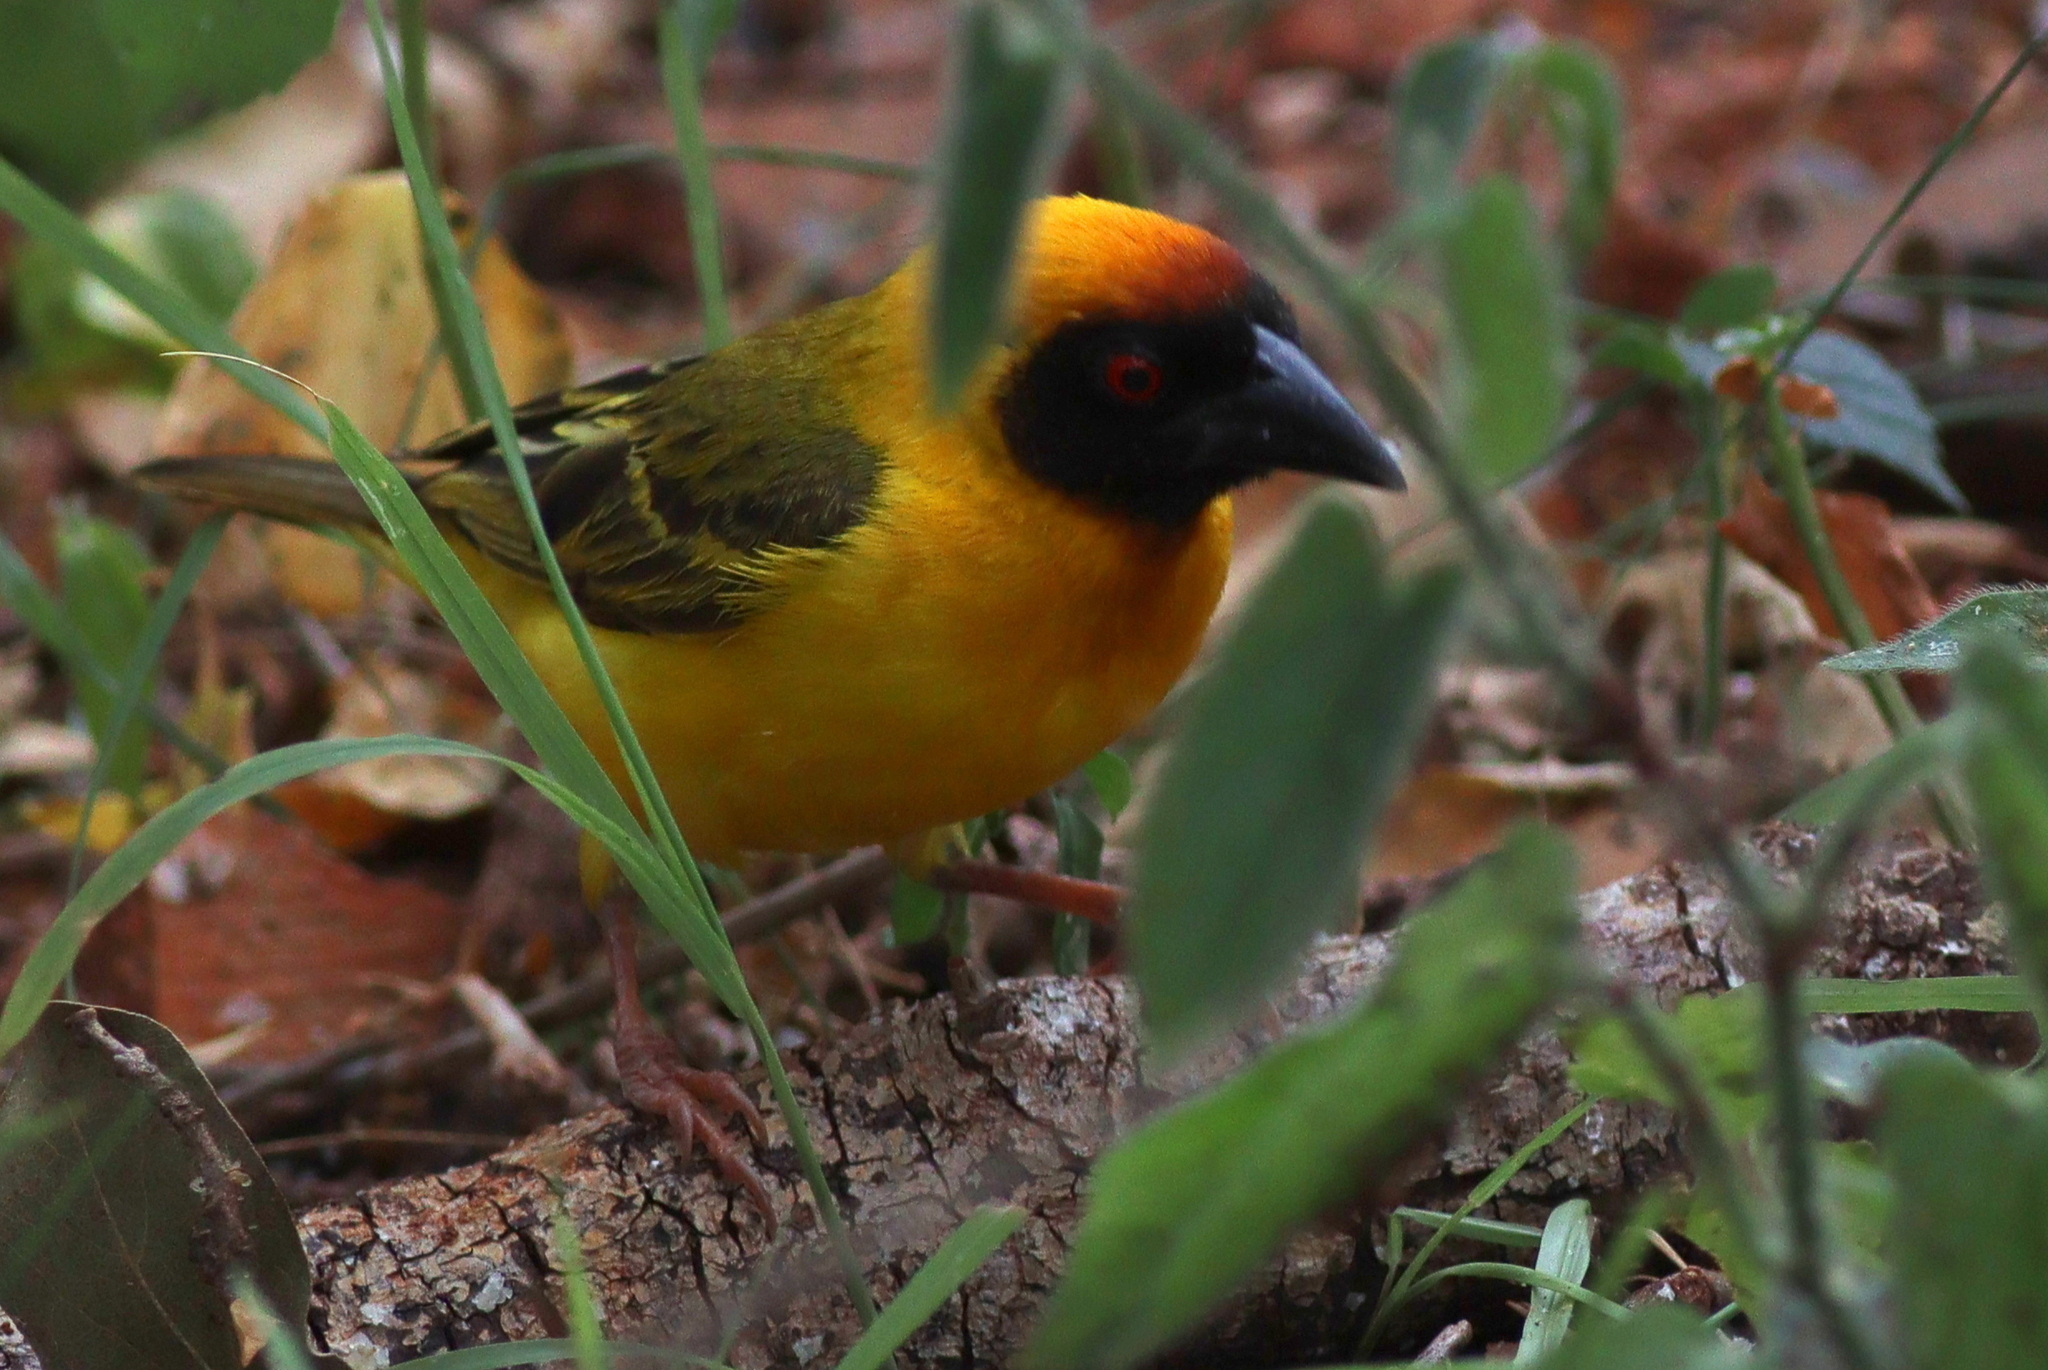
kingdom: Animalia
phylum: Chordata
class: Aves
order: Passeriformes
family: Ploceidae
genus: Ploceus
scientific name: Ploceus vitellinus
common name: Vitelline masked weaver
